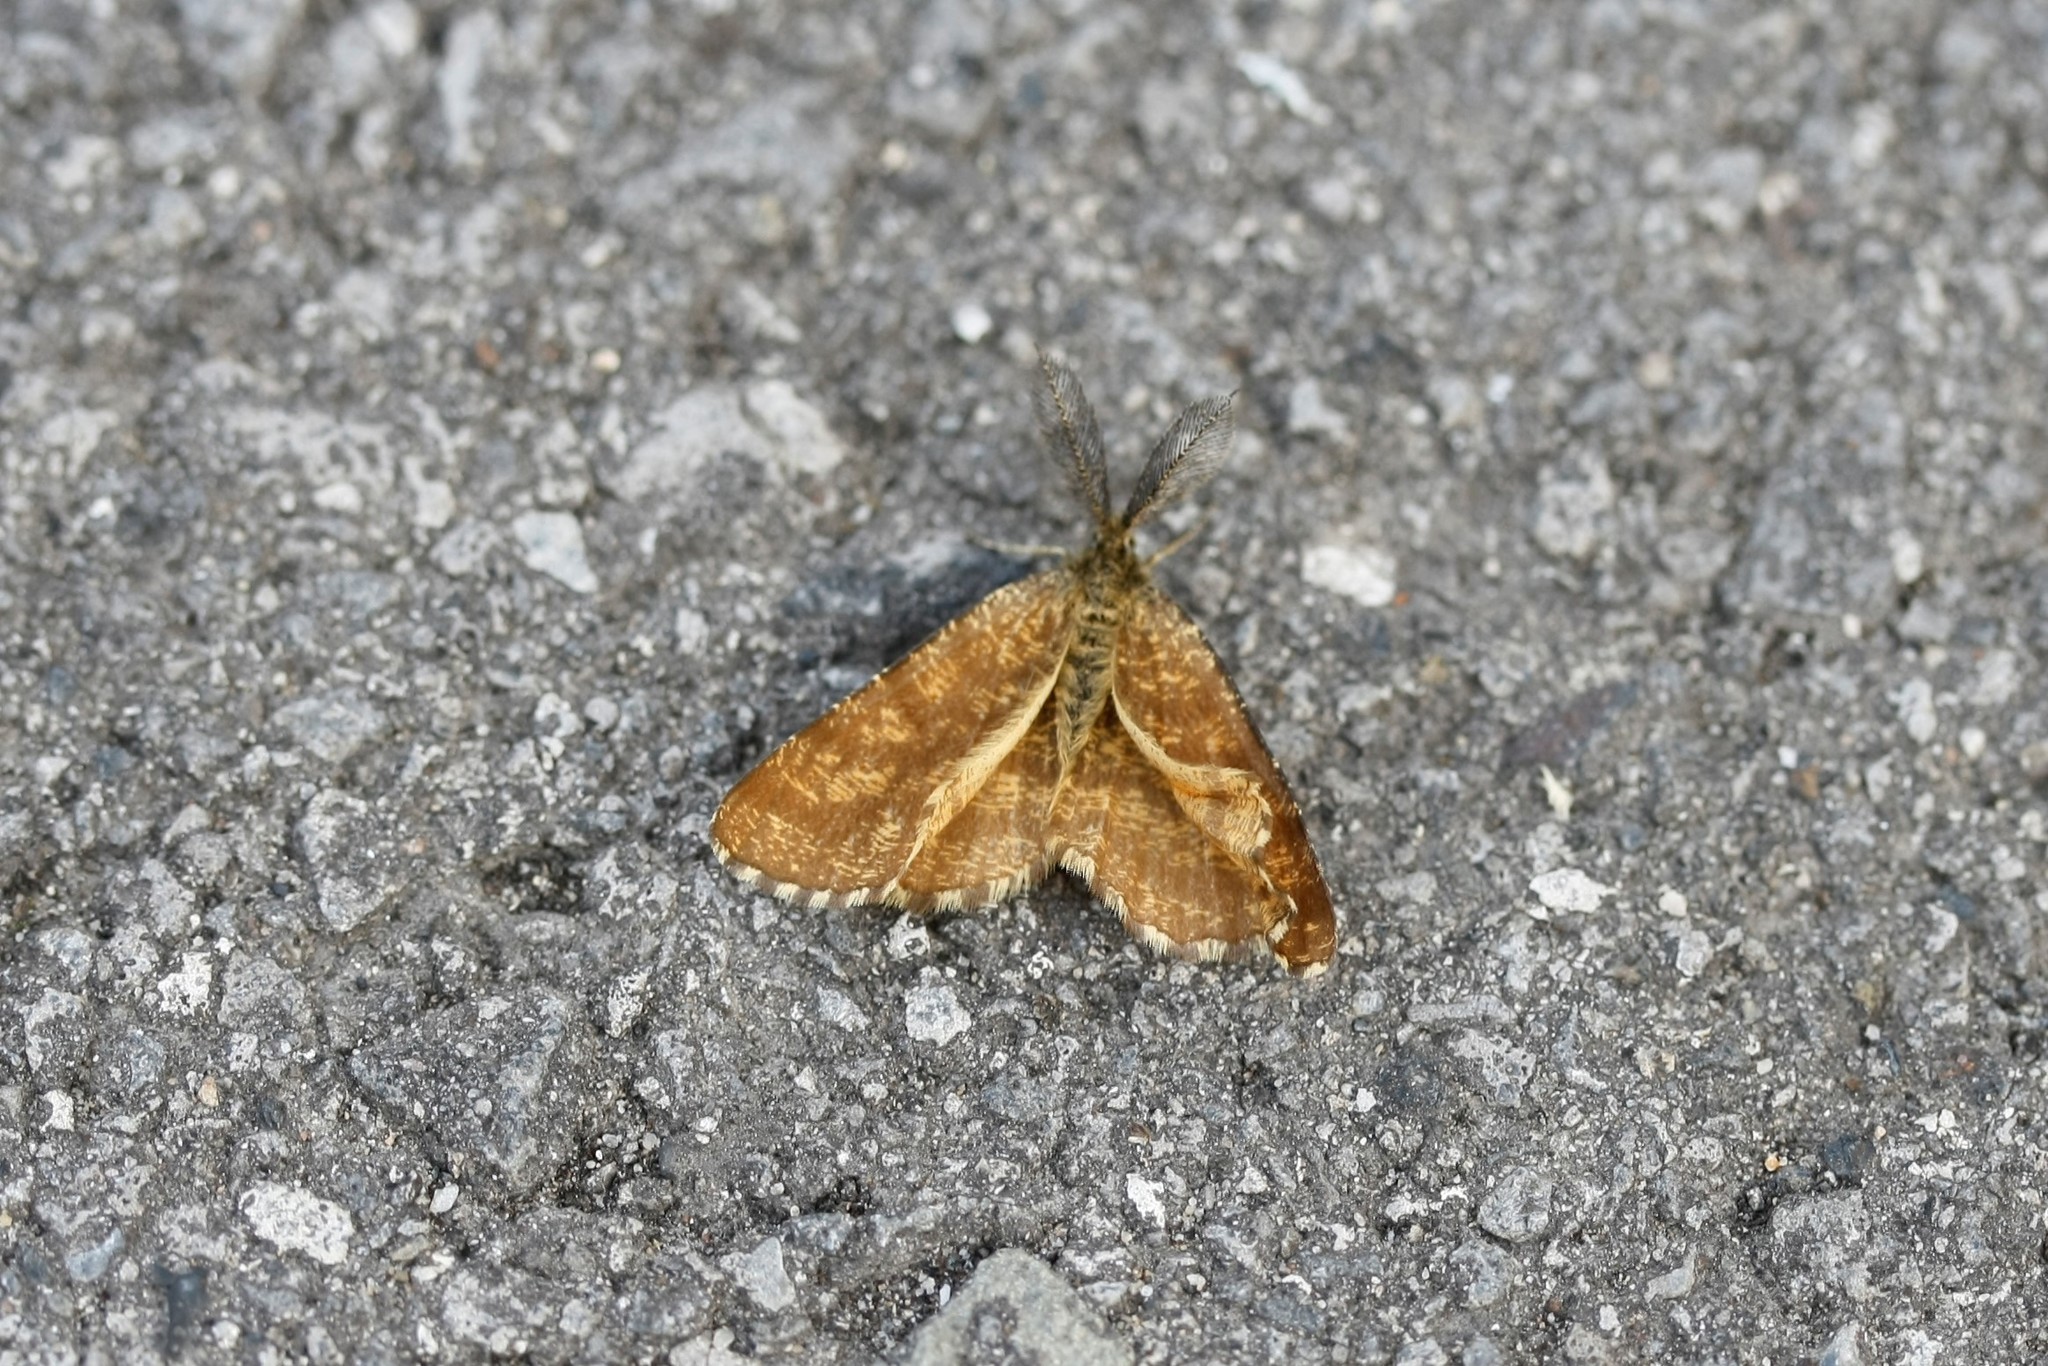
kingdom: Animalia
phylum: Arthropoda
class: Insecta
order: Lepidoptera
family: Geometridae
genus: Ematurga
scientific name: Ematurga atomaria
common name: Common heath
